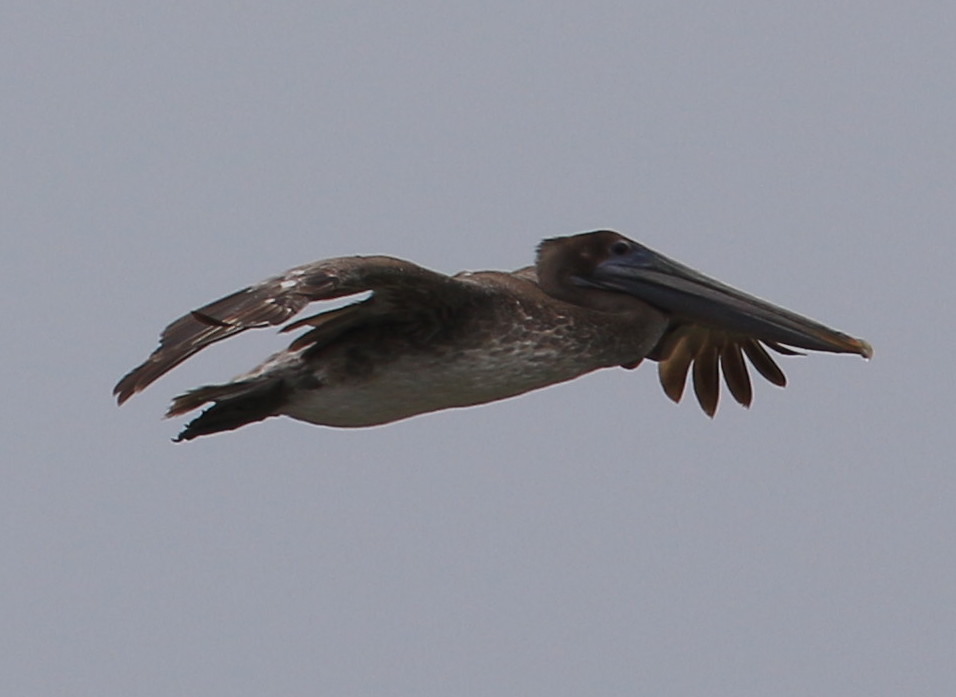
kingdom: Animalia
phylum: Chordata
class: Aves
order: Pelecaniformes
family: Pelecanidae
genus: Pelecanus
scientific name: Pelecanus occidentalis
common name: Brown pelican
